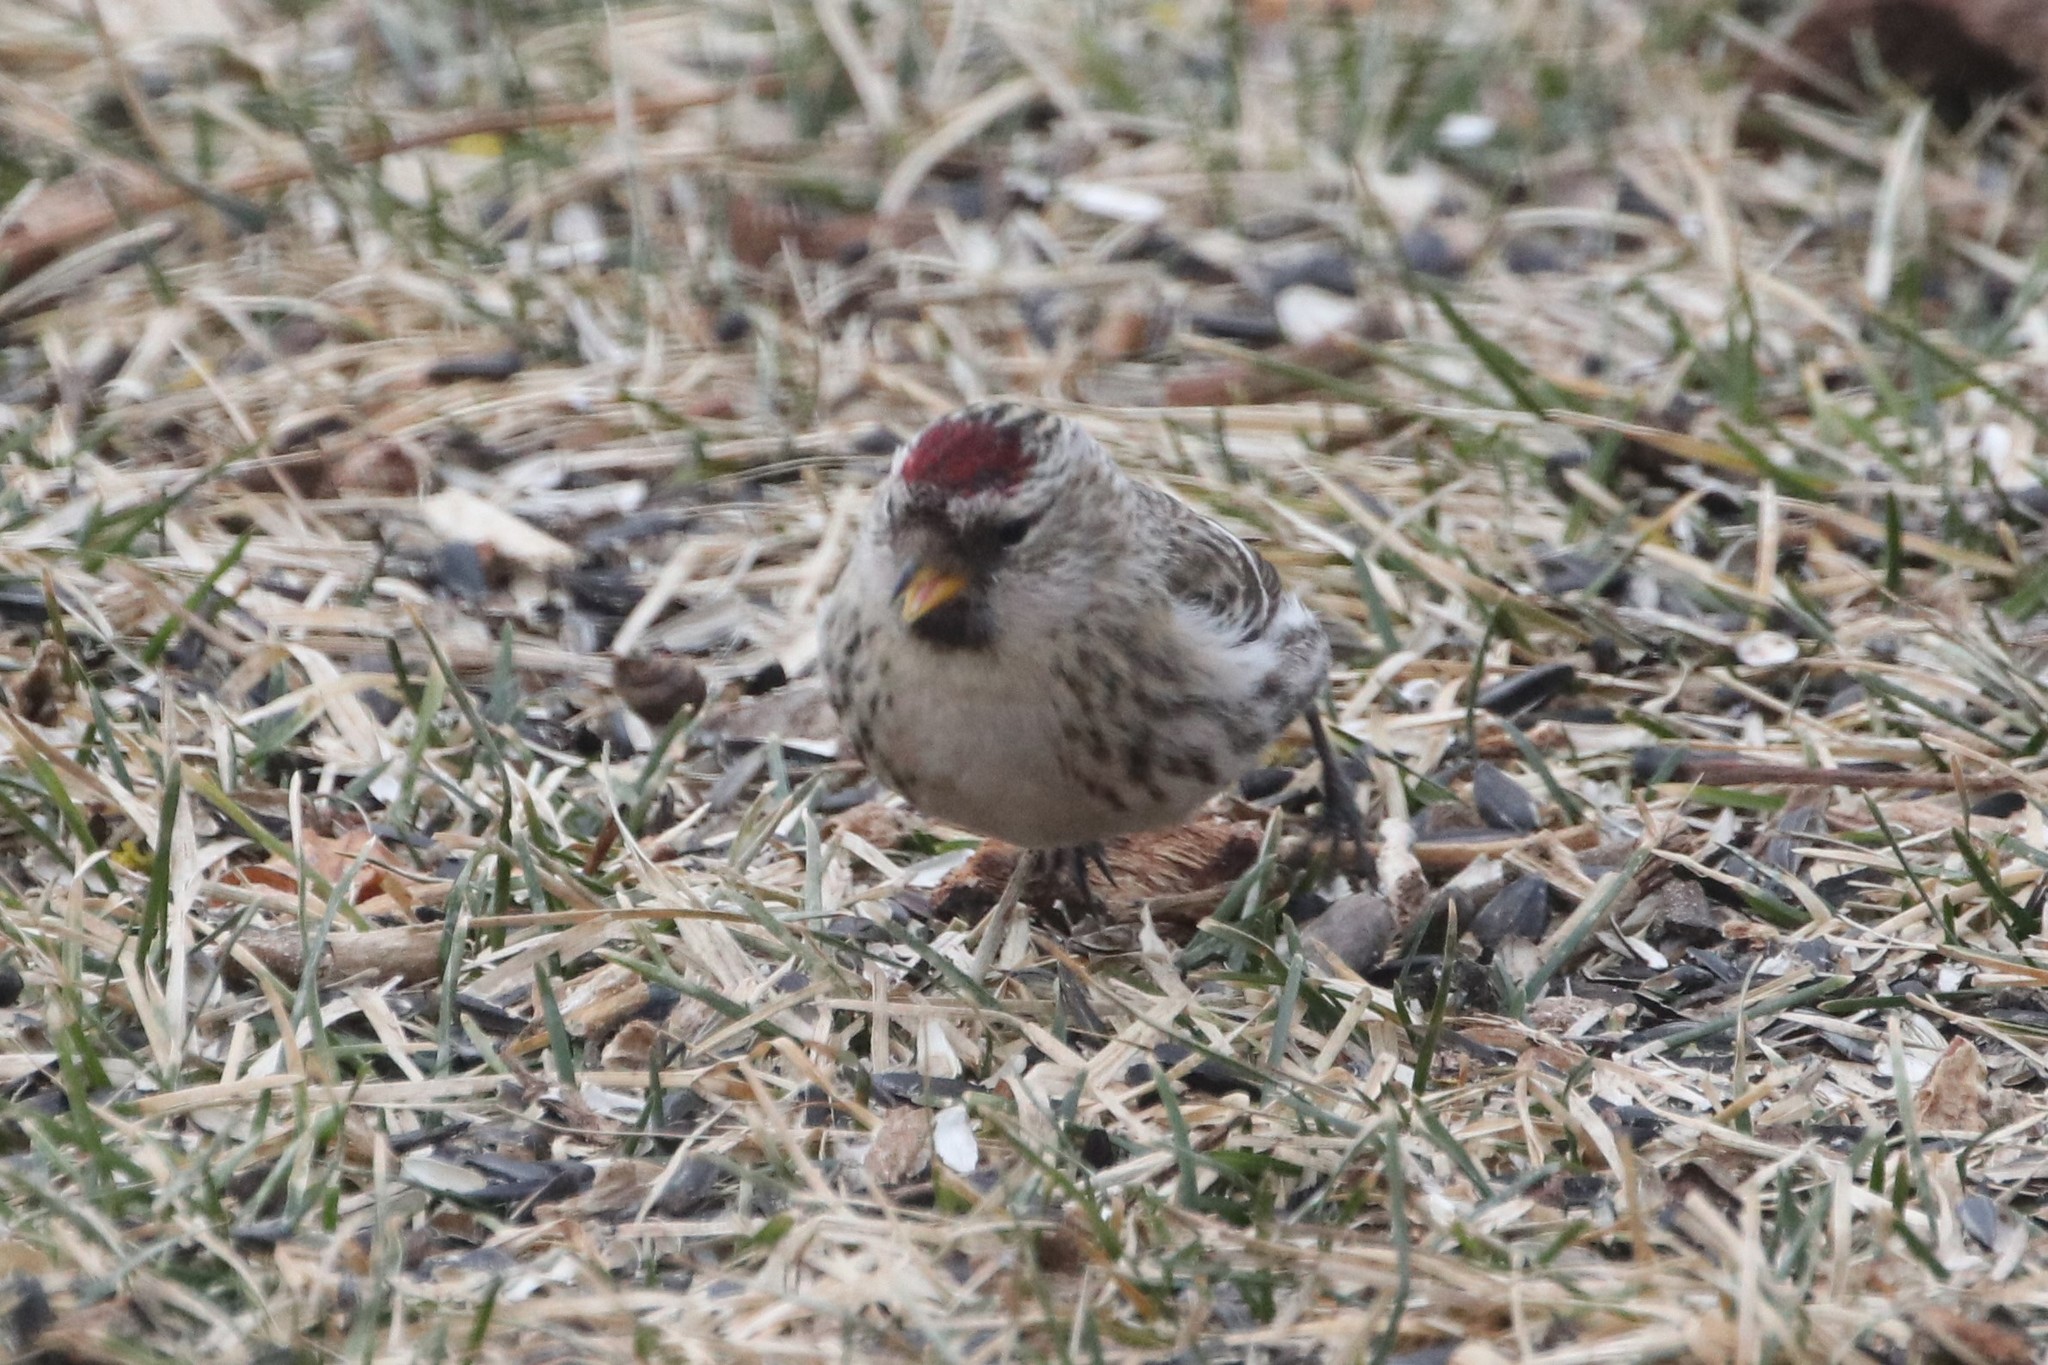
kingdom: Animalia
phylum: Chordata
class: Aves
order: Passeriformes
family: Fringillidae
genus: Acanthis
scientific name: Acanthis flammea
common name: Common redpoll
